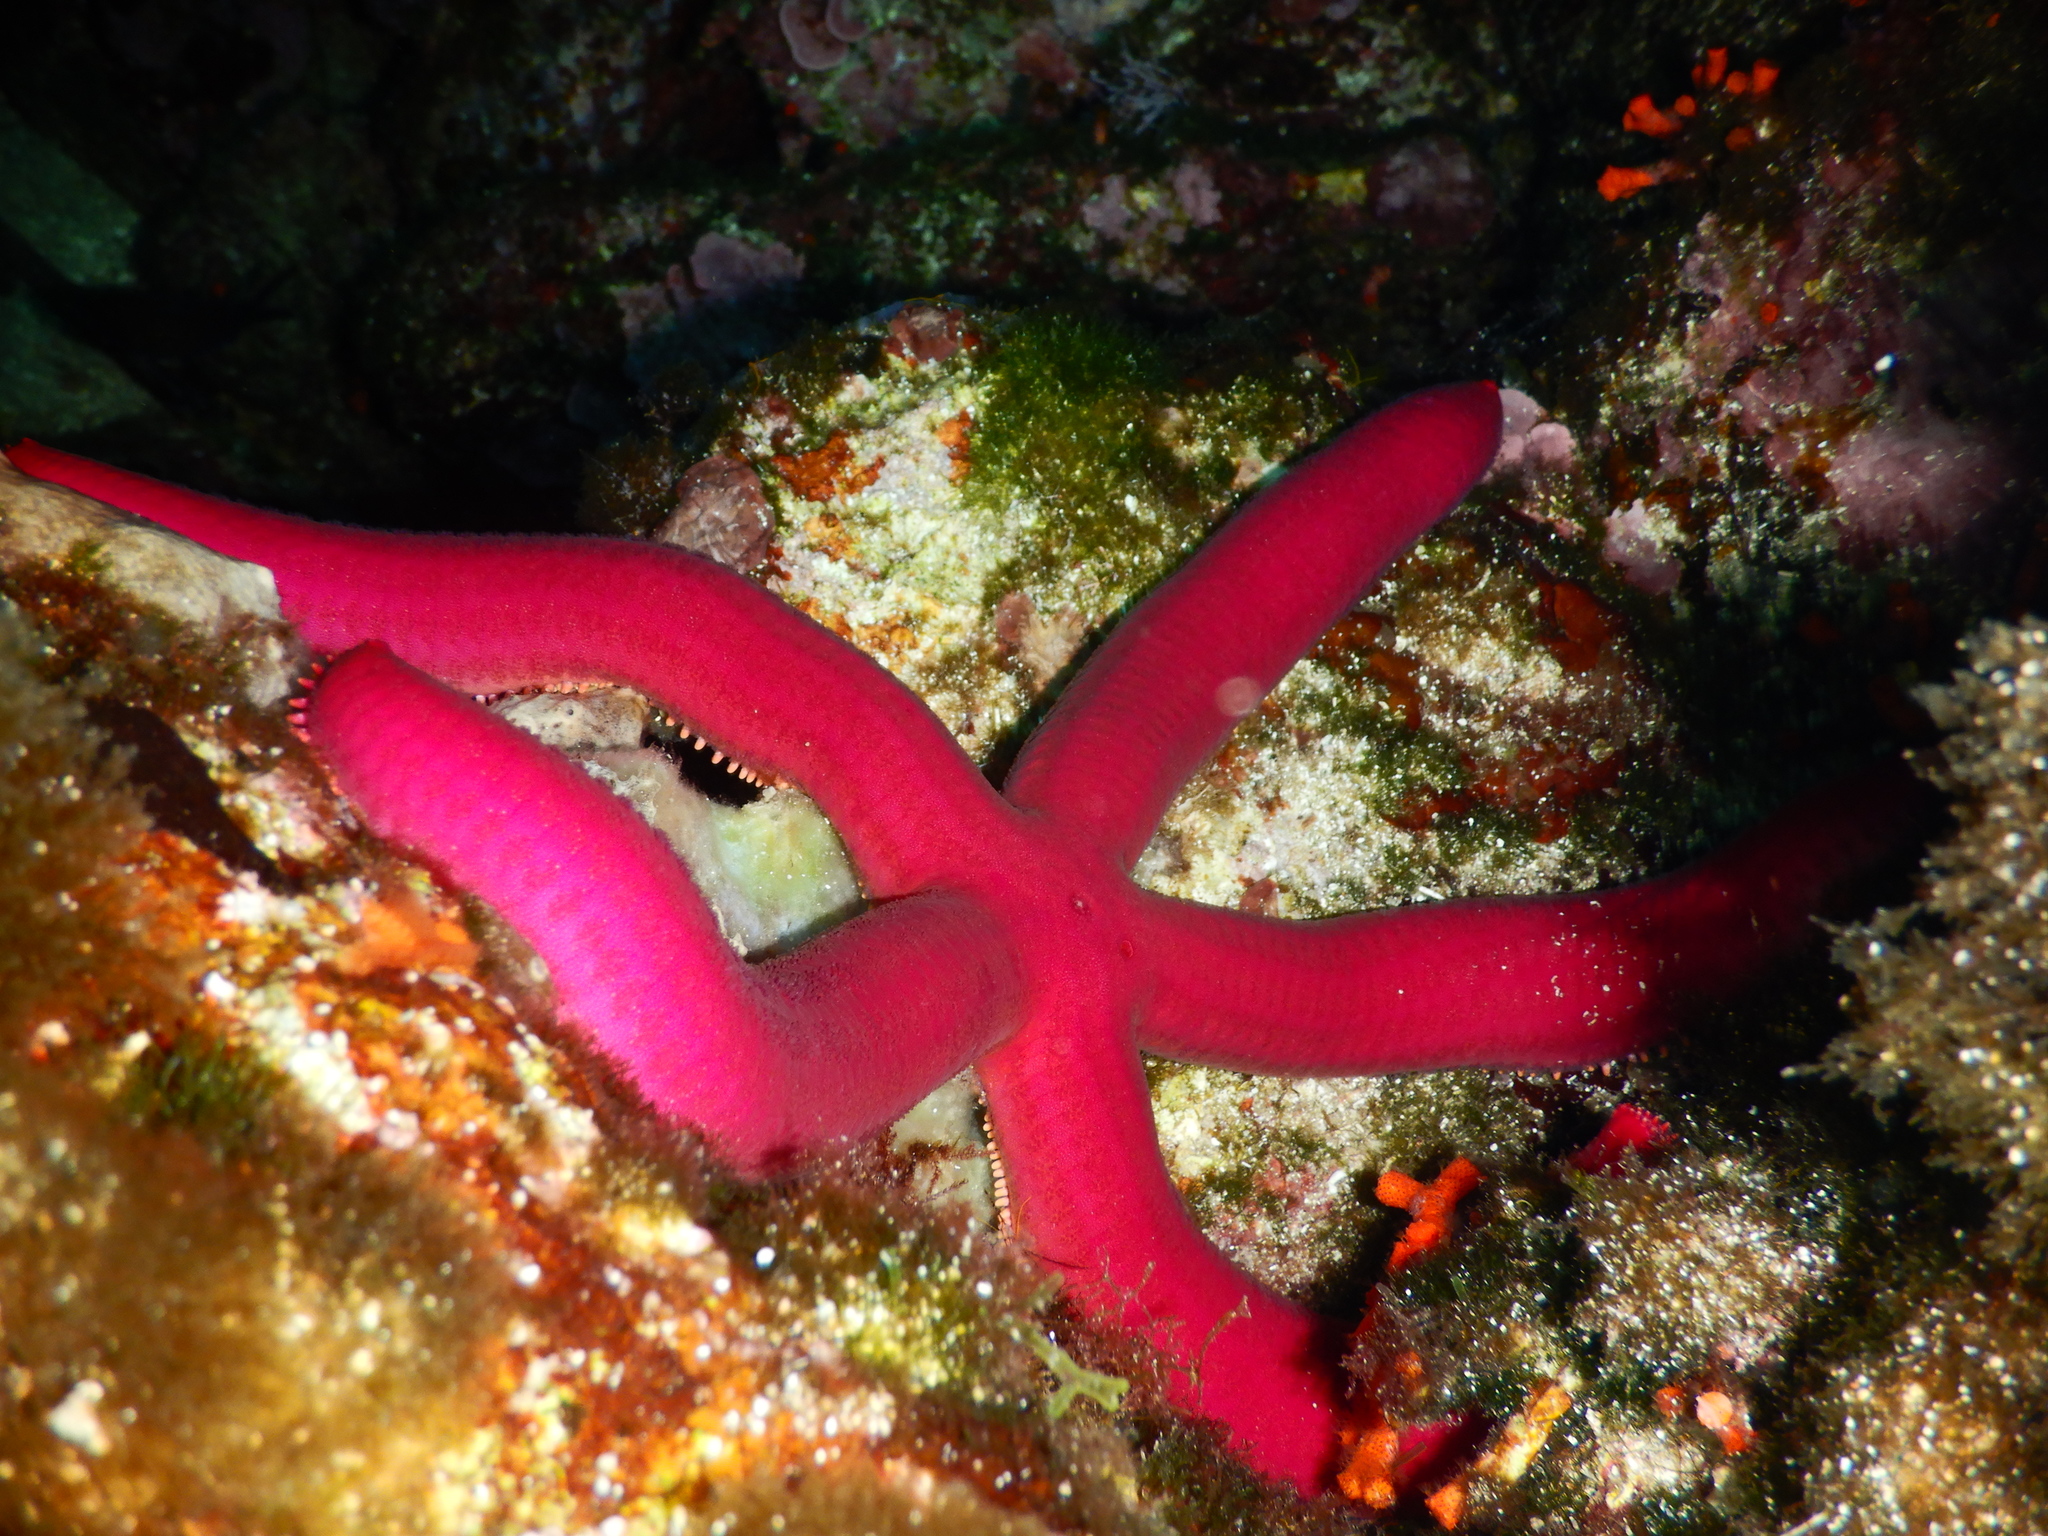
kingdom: Animalia
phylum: Echinodermata
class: Asteroidea
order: Valvatida
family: Ophidiasteridae
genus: Ophidiaster
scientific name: Ophidiaster ophidianus
